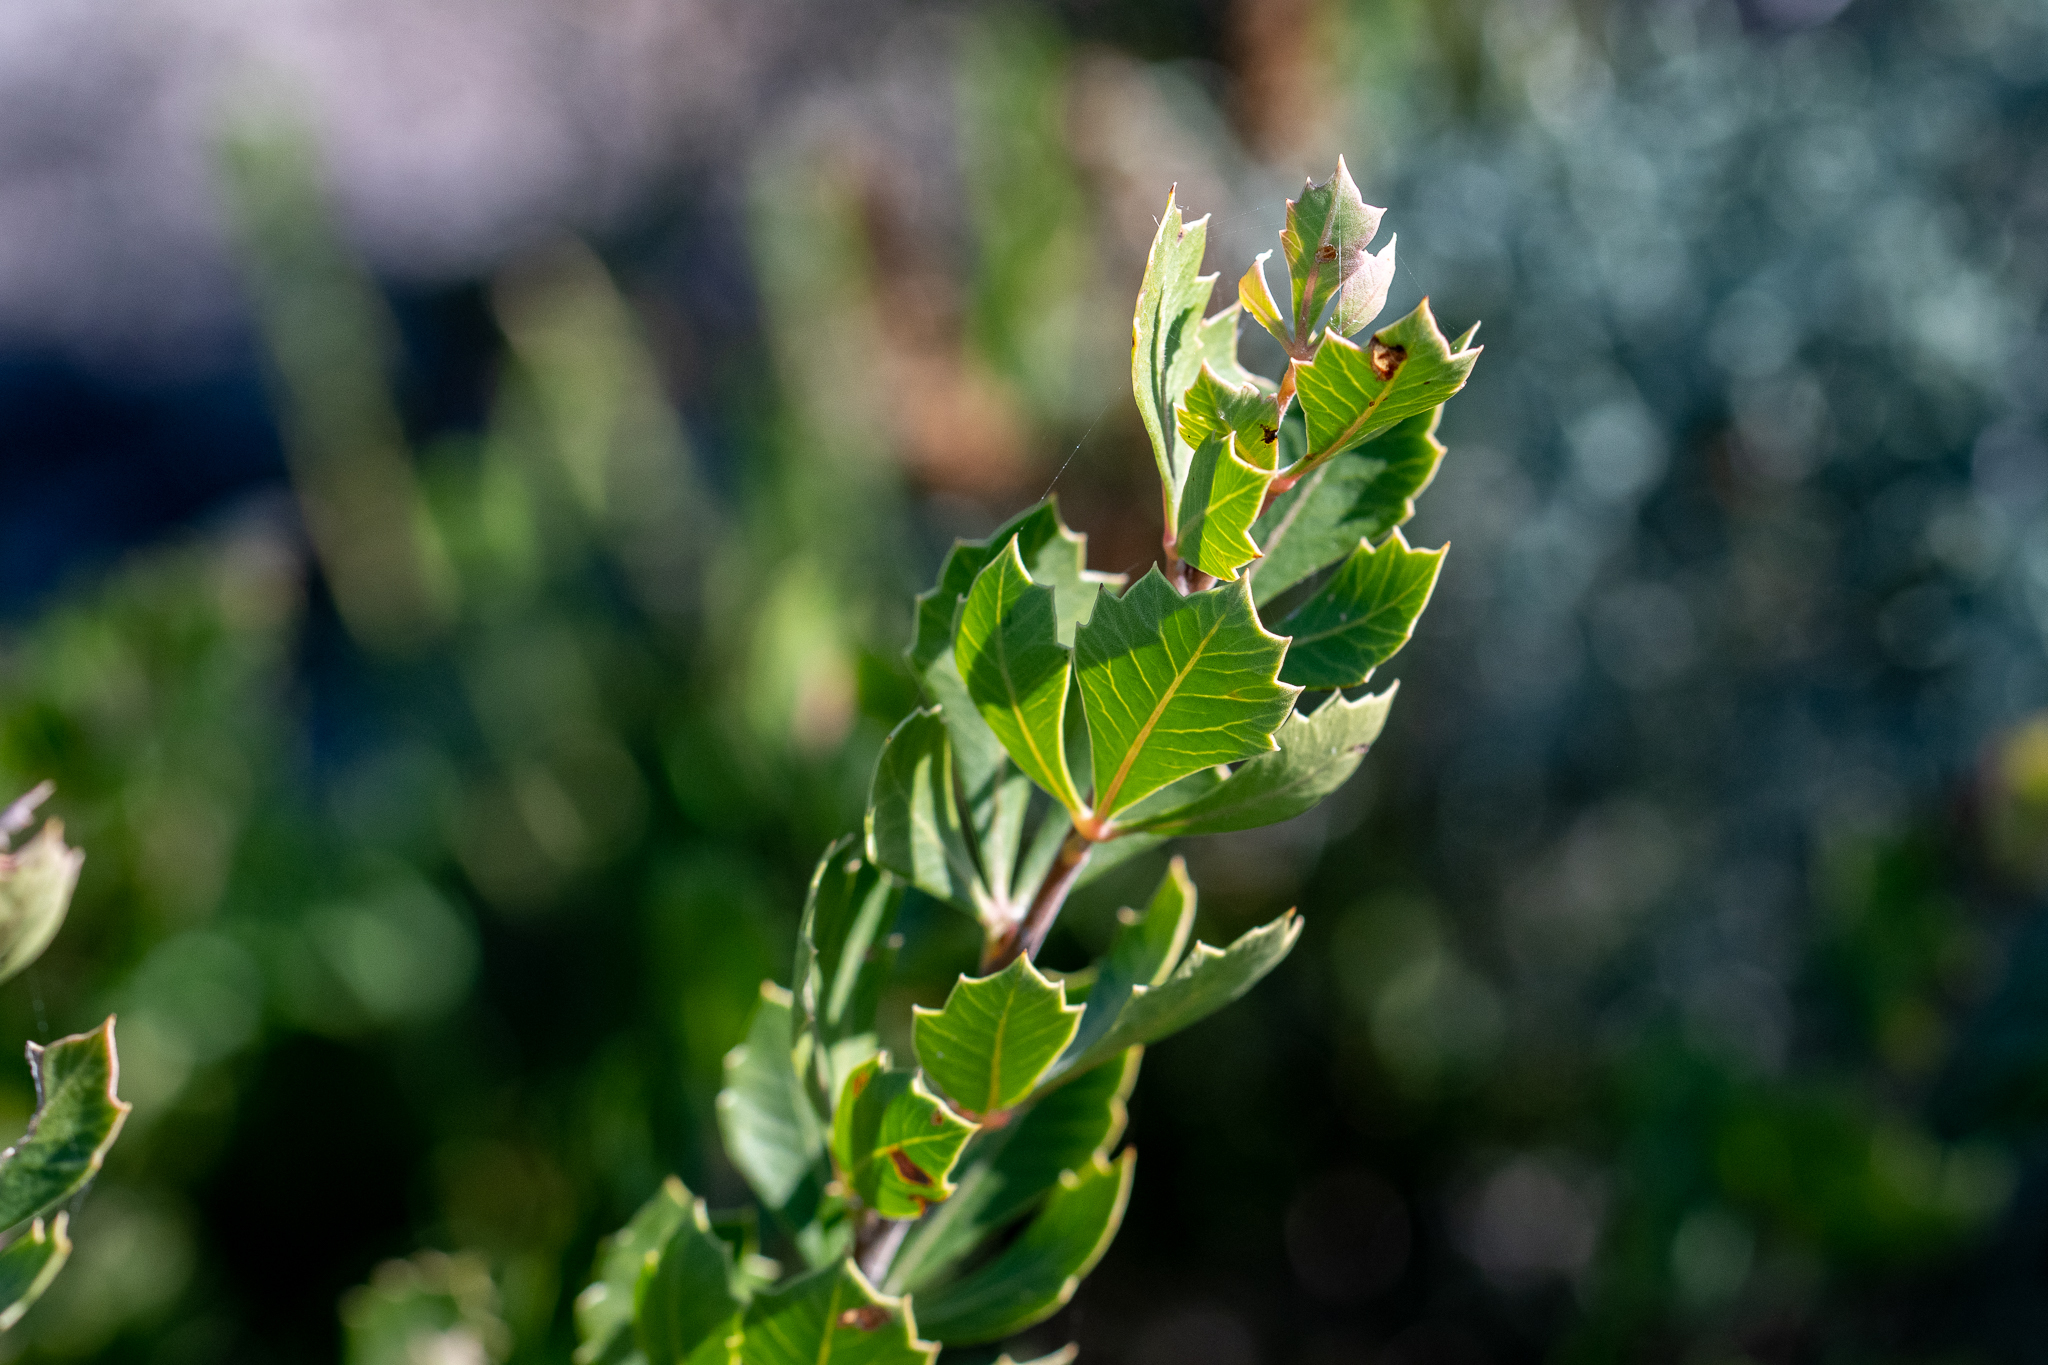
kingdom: Plantae
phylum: Tracheophyta
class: Magnoliopsida
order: Sapindales
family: Anacardiaceae
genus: Searsia
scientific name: Searsia cuneifolia
